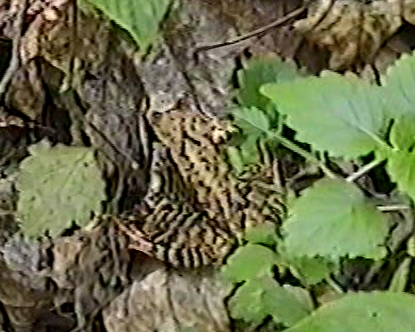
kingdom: Animalia
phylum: Chordata
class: Amphibia
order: Anura
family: Ranidae
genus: Rana
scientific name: Rana temporaria
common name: Common frog
